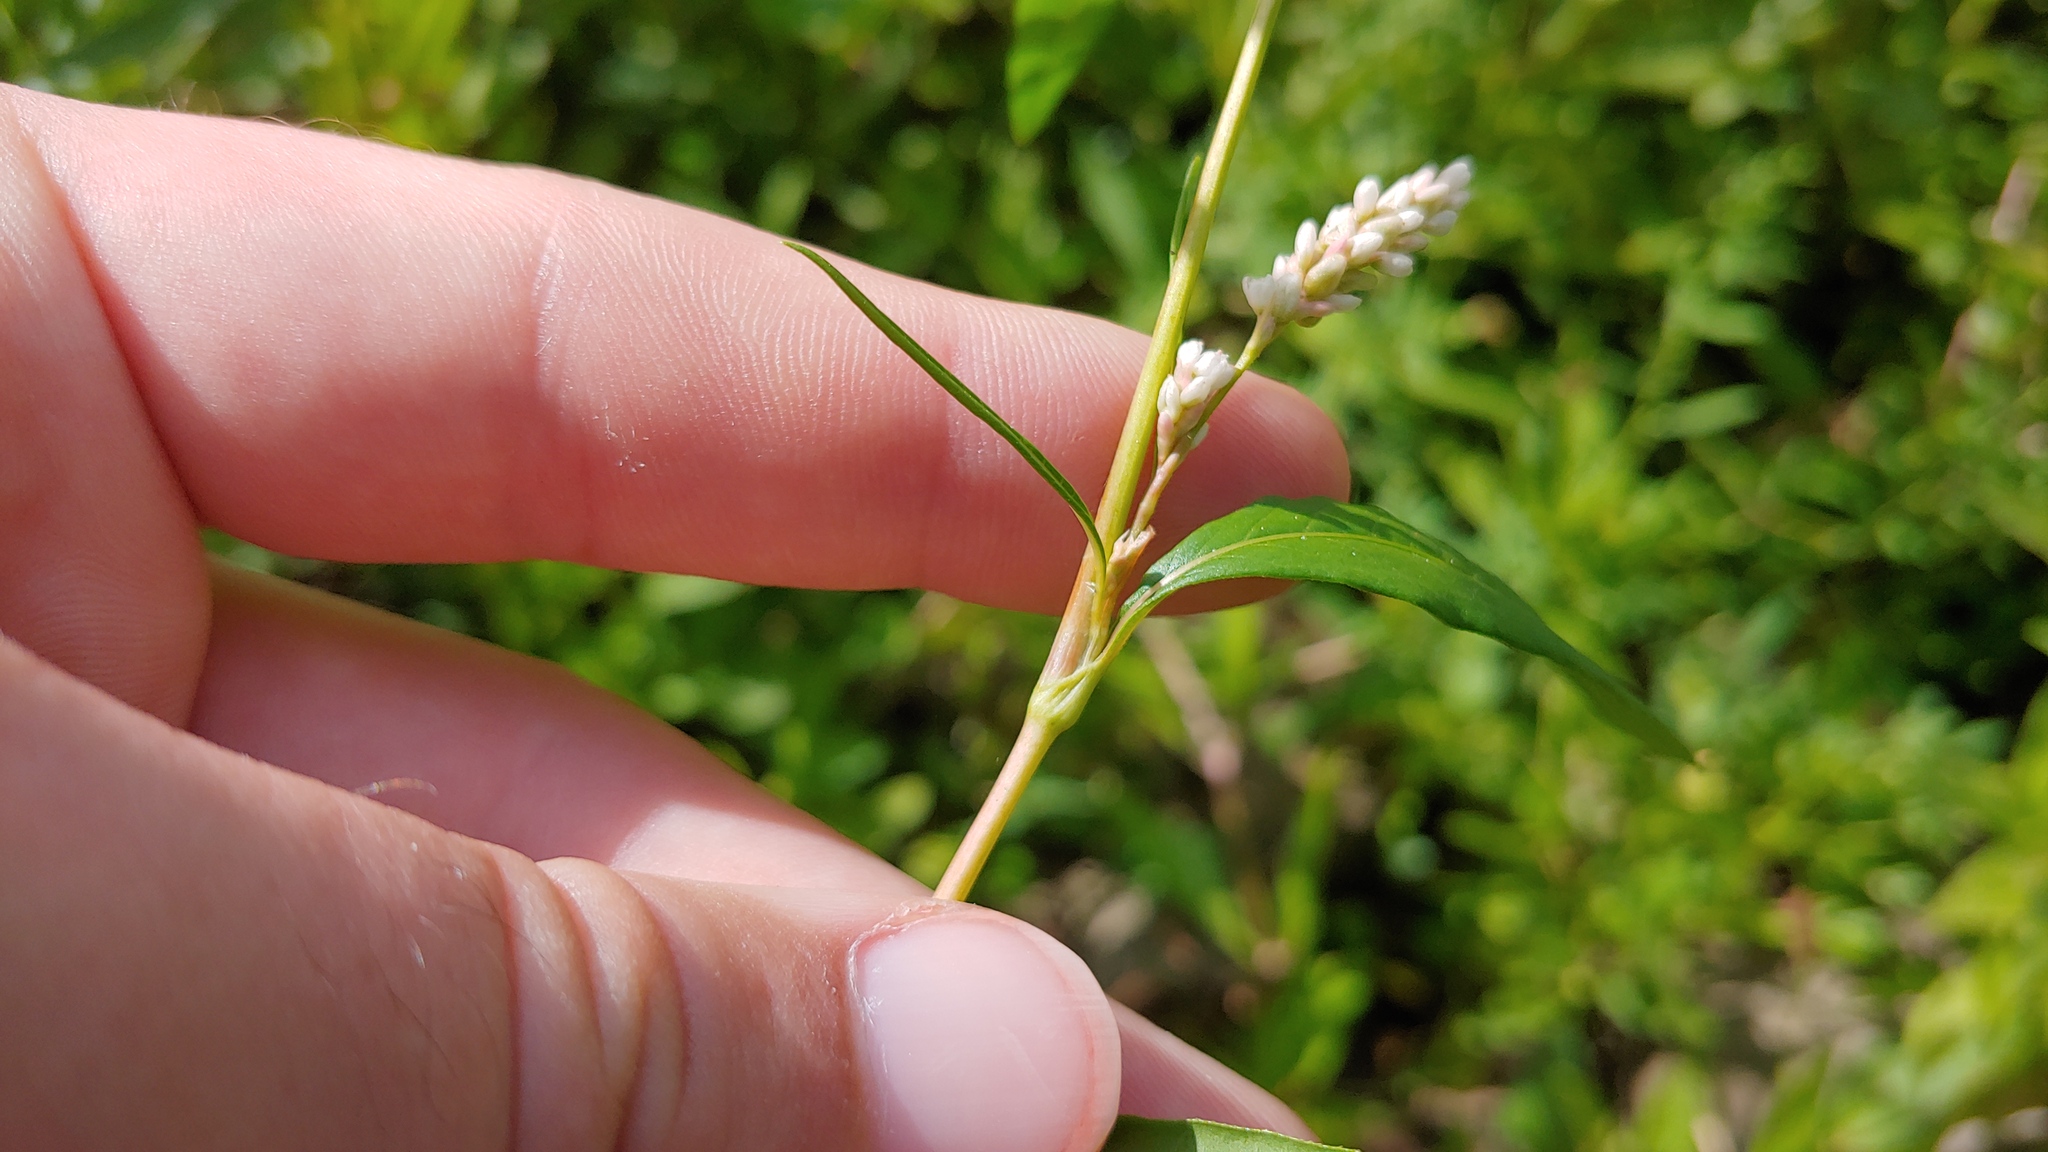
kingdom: Plantae
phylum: Tracheophyta
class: Magnoliopsida
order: Caryophyllales
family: Polygonaceae
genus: Persicaria
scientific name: Persicaria lapathifolia
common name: Curlytop knotweed
